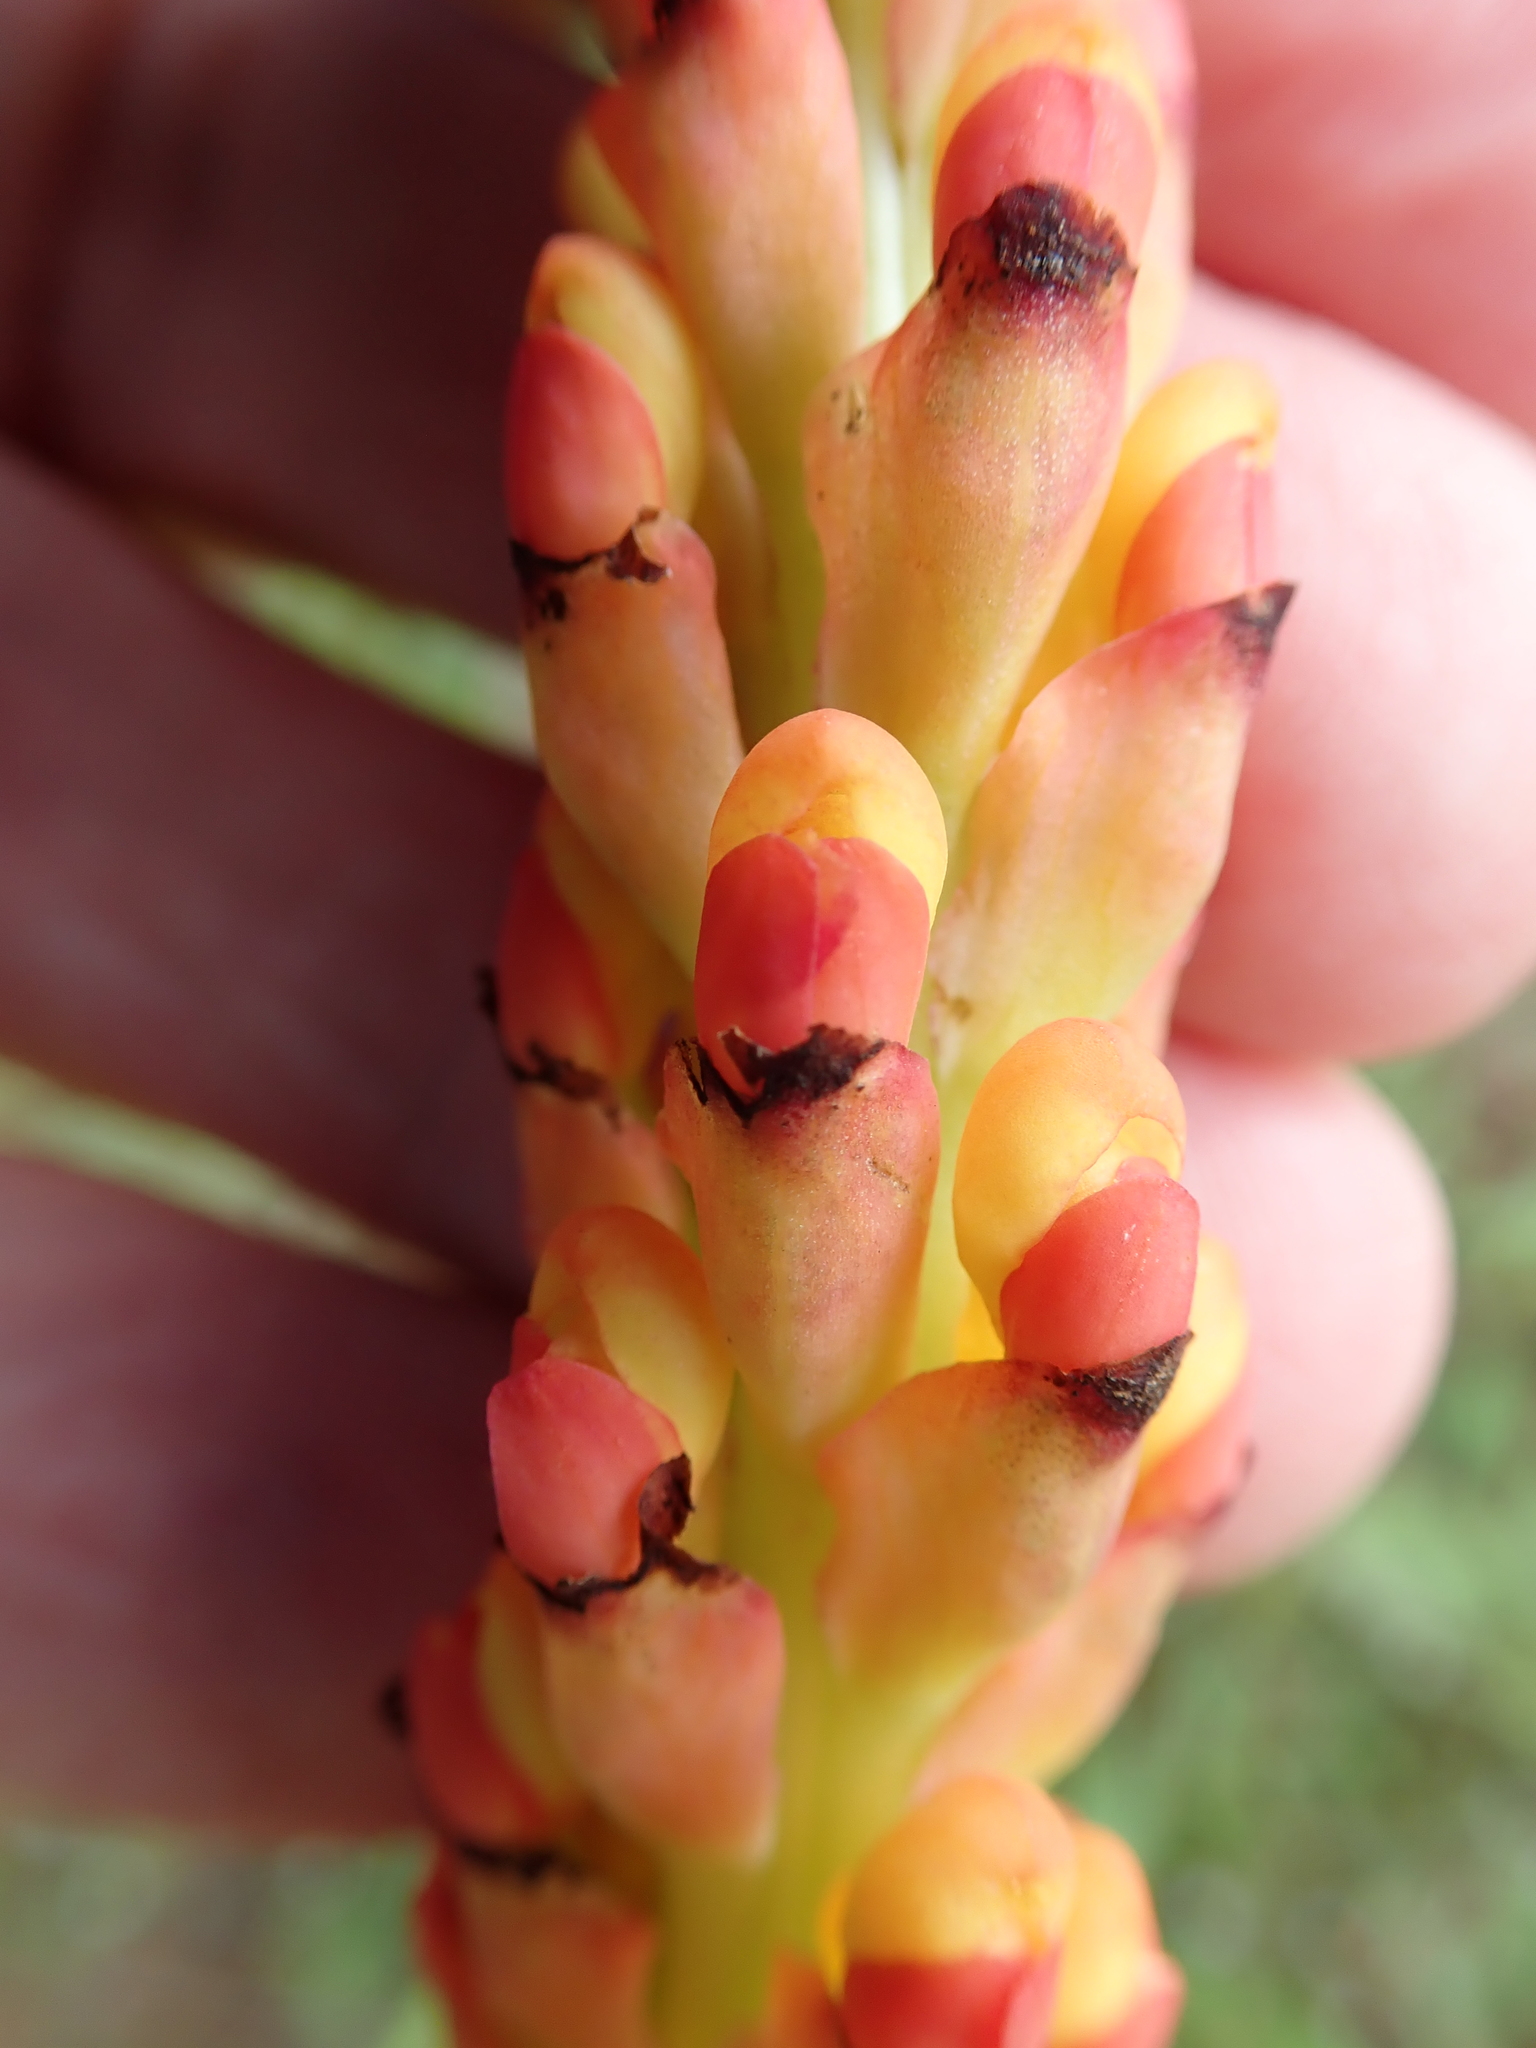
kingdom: Plantae
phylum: Tracheophyta
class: Liliopsida
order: Asparagales
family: Orchidaceae
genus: Disa
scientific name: Disa chrysostachya
